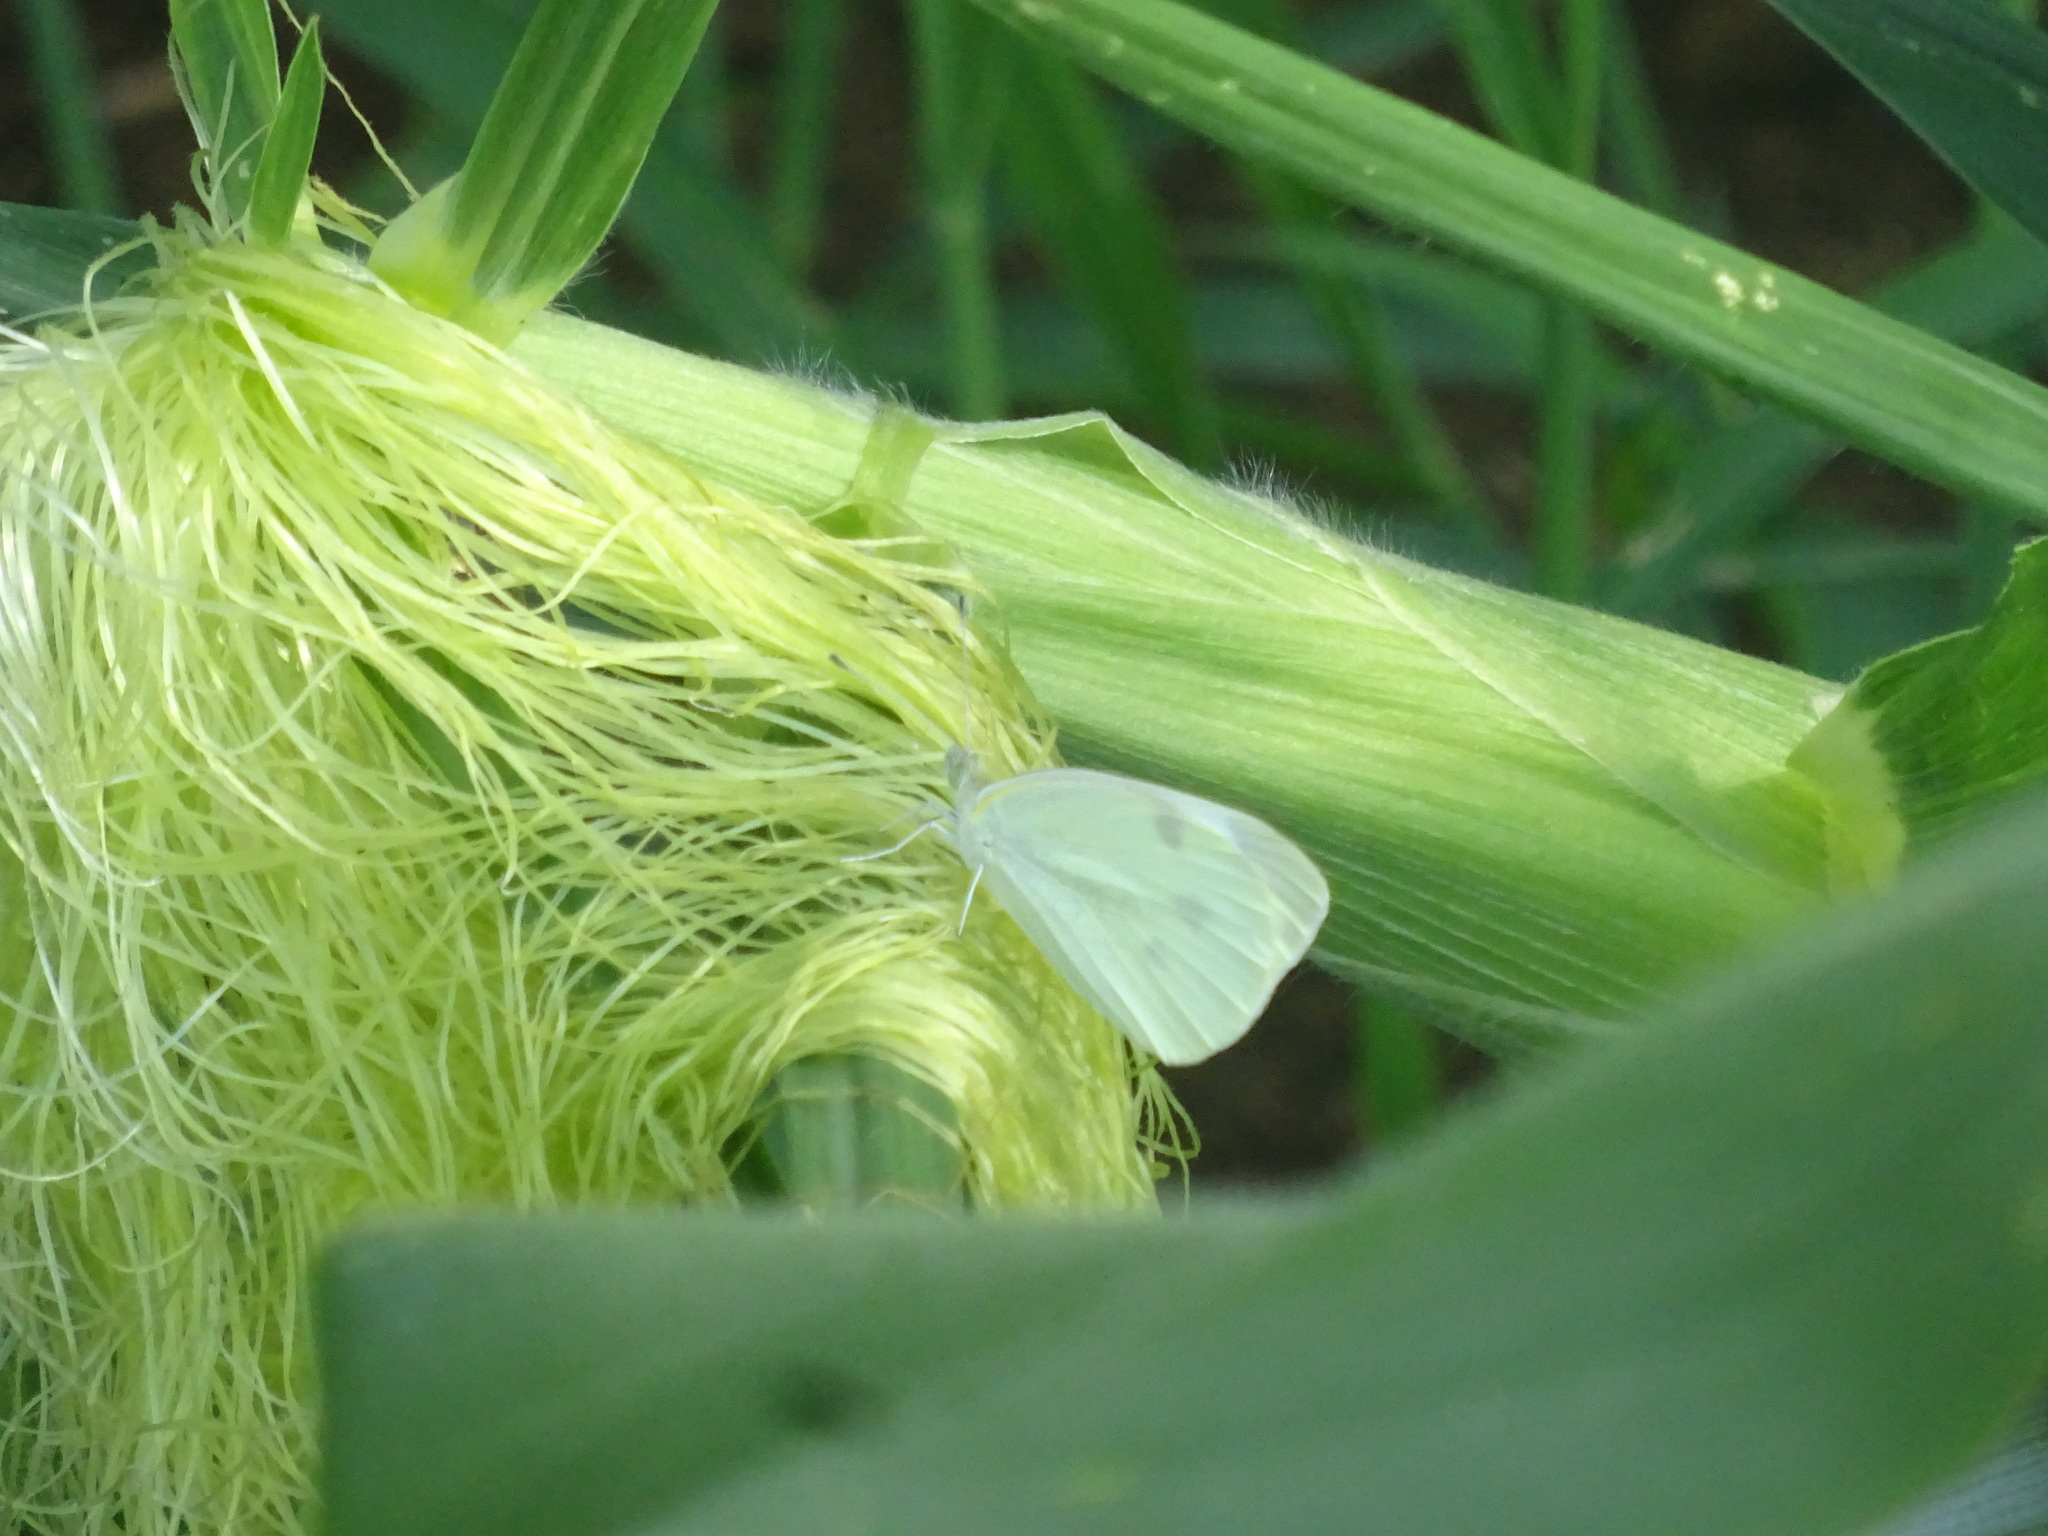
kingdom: Animalia
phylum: Arthropoda
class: Insecta
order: Lepidoptera
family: Pieridae
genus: Pieris
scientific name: Pieris rapae
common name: Small white
